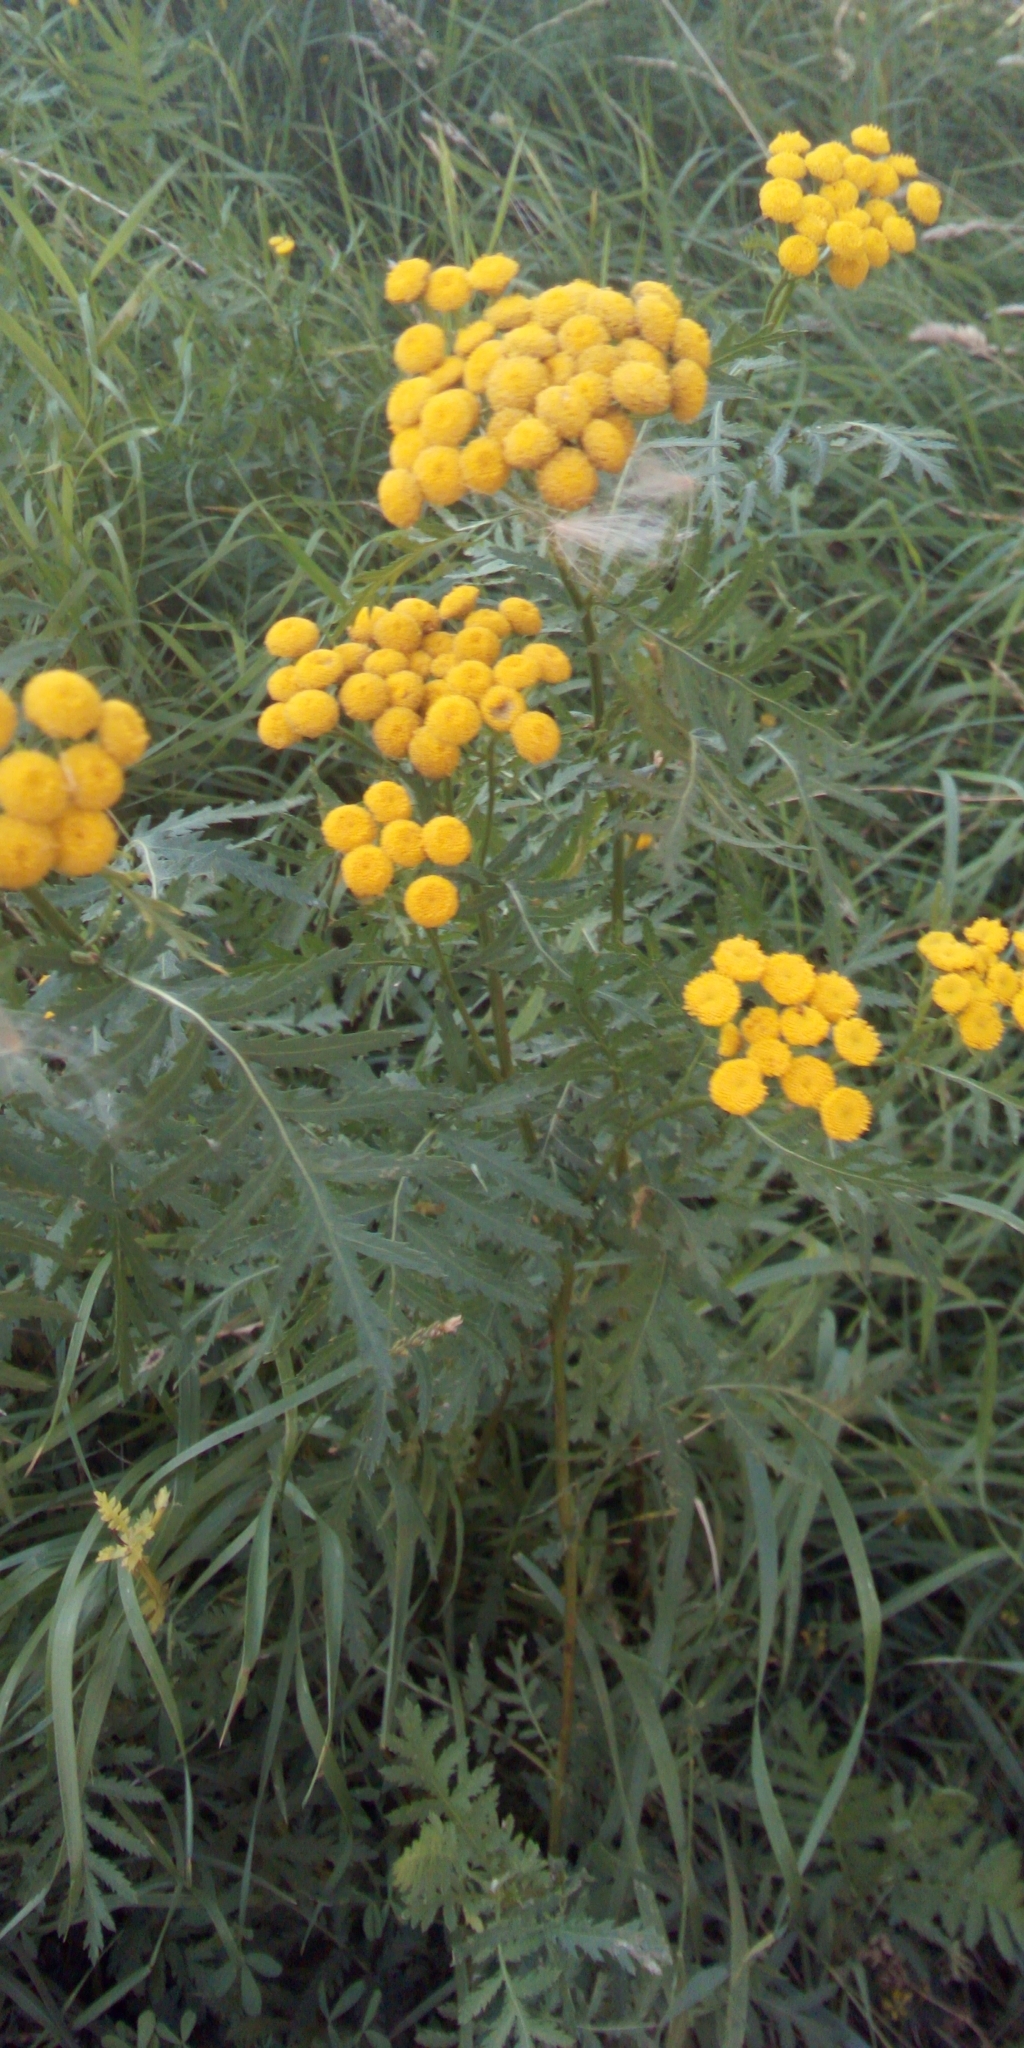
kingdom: Plantae
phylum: Tracheophyta
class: Magnoliopsida
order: Asterales
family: Asteraceae
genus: Tanacetum
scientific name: Tanacetum vulgare
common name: Common tansy
